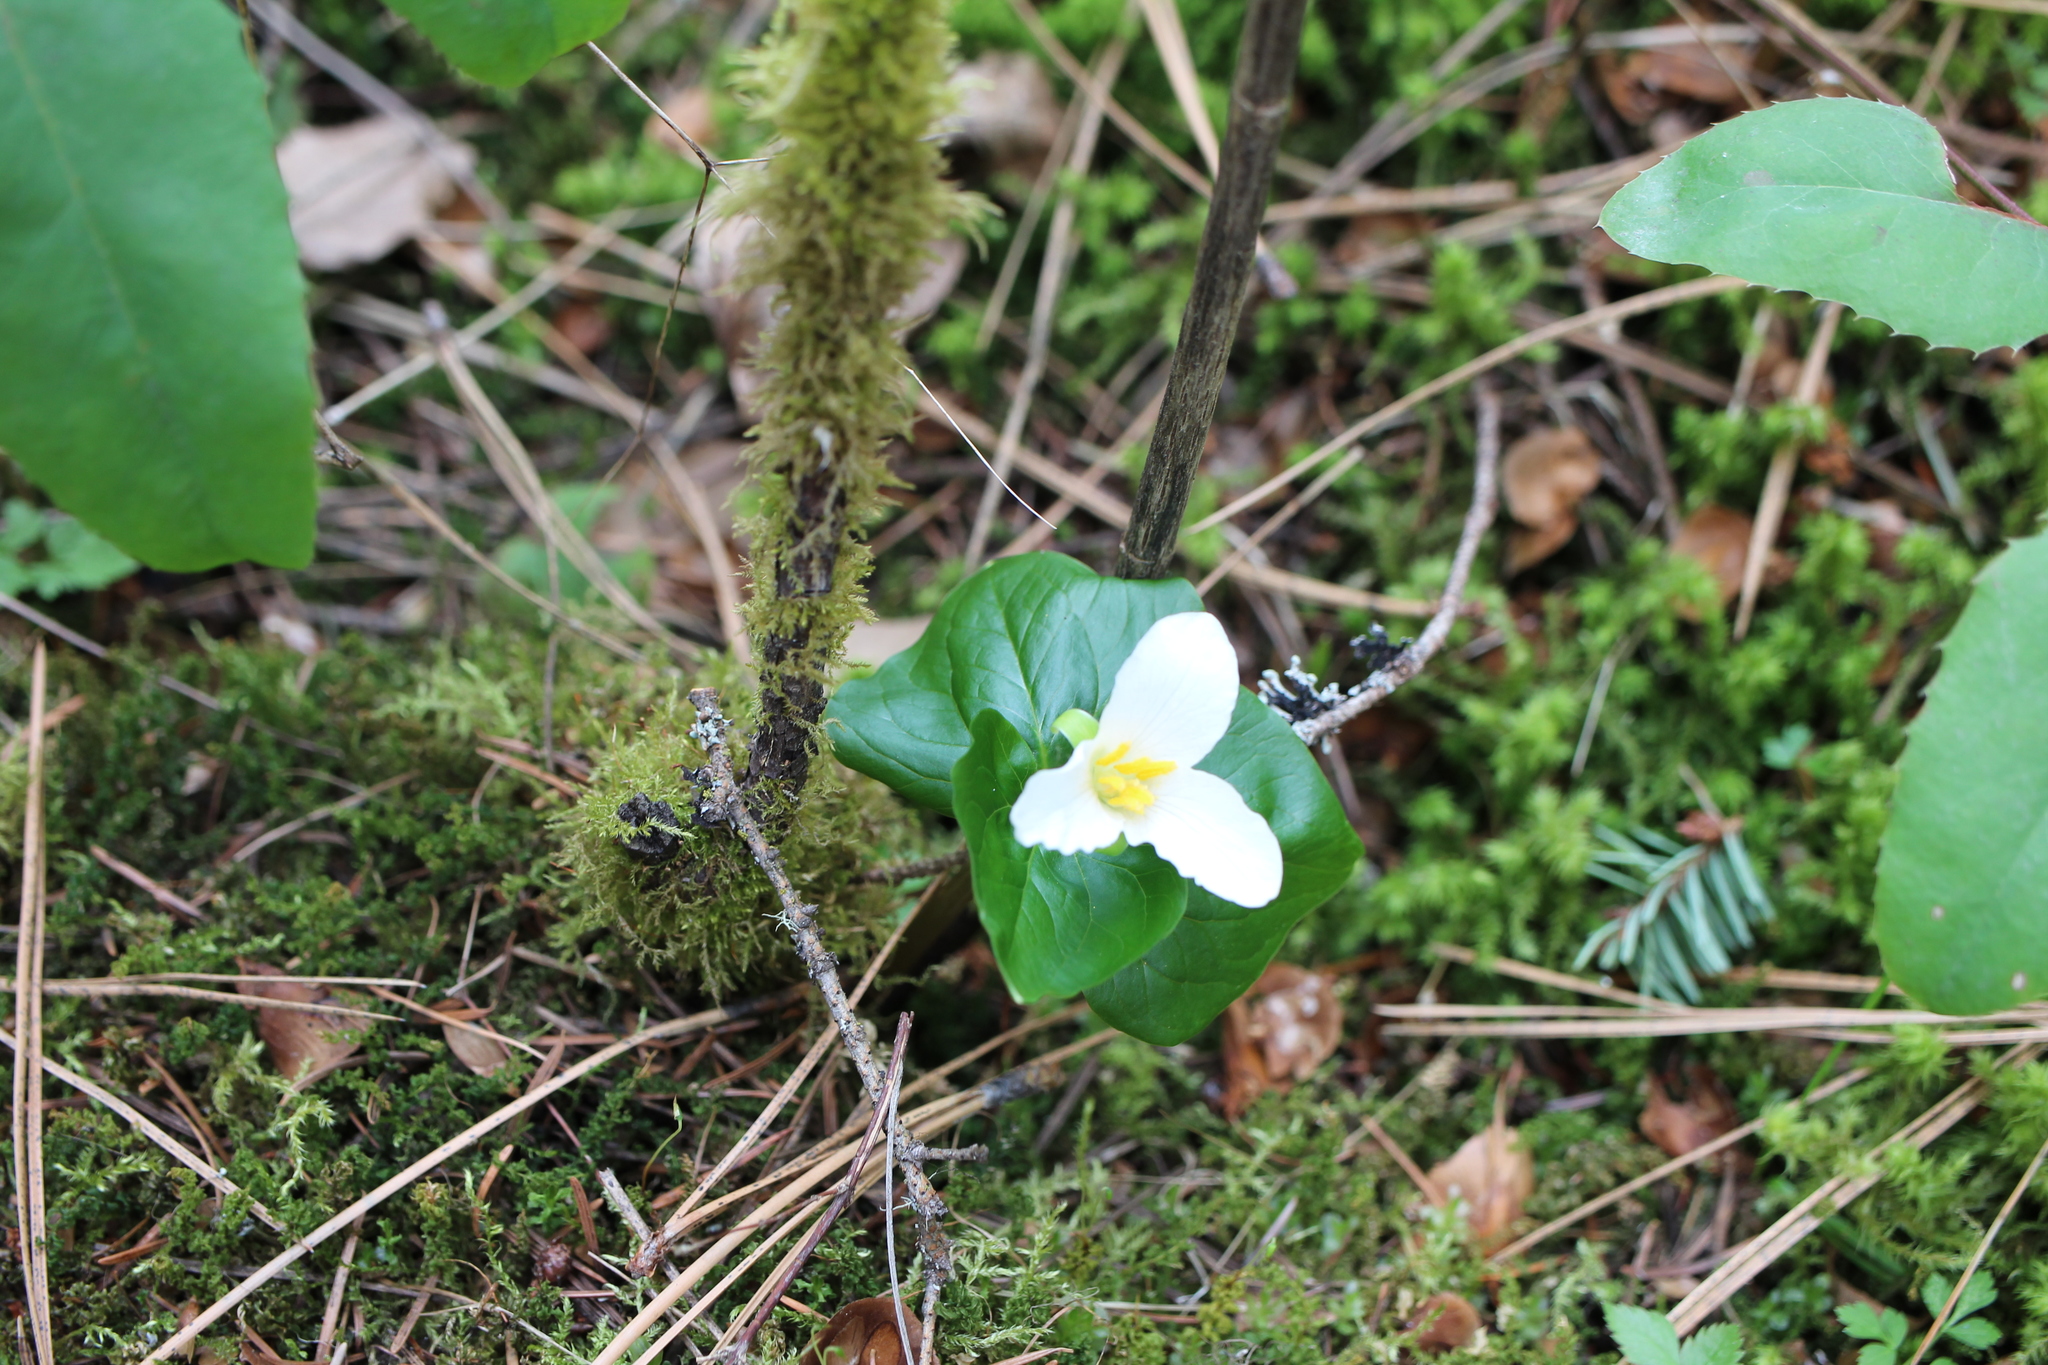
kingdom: Plantae
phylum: Tracheophyta
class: Liliopsida
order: Liliales
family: Melanthiaceae
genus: Trillium
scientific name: Trillium ovatum
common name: Pacific trillium
